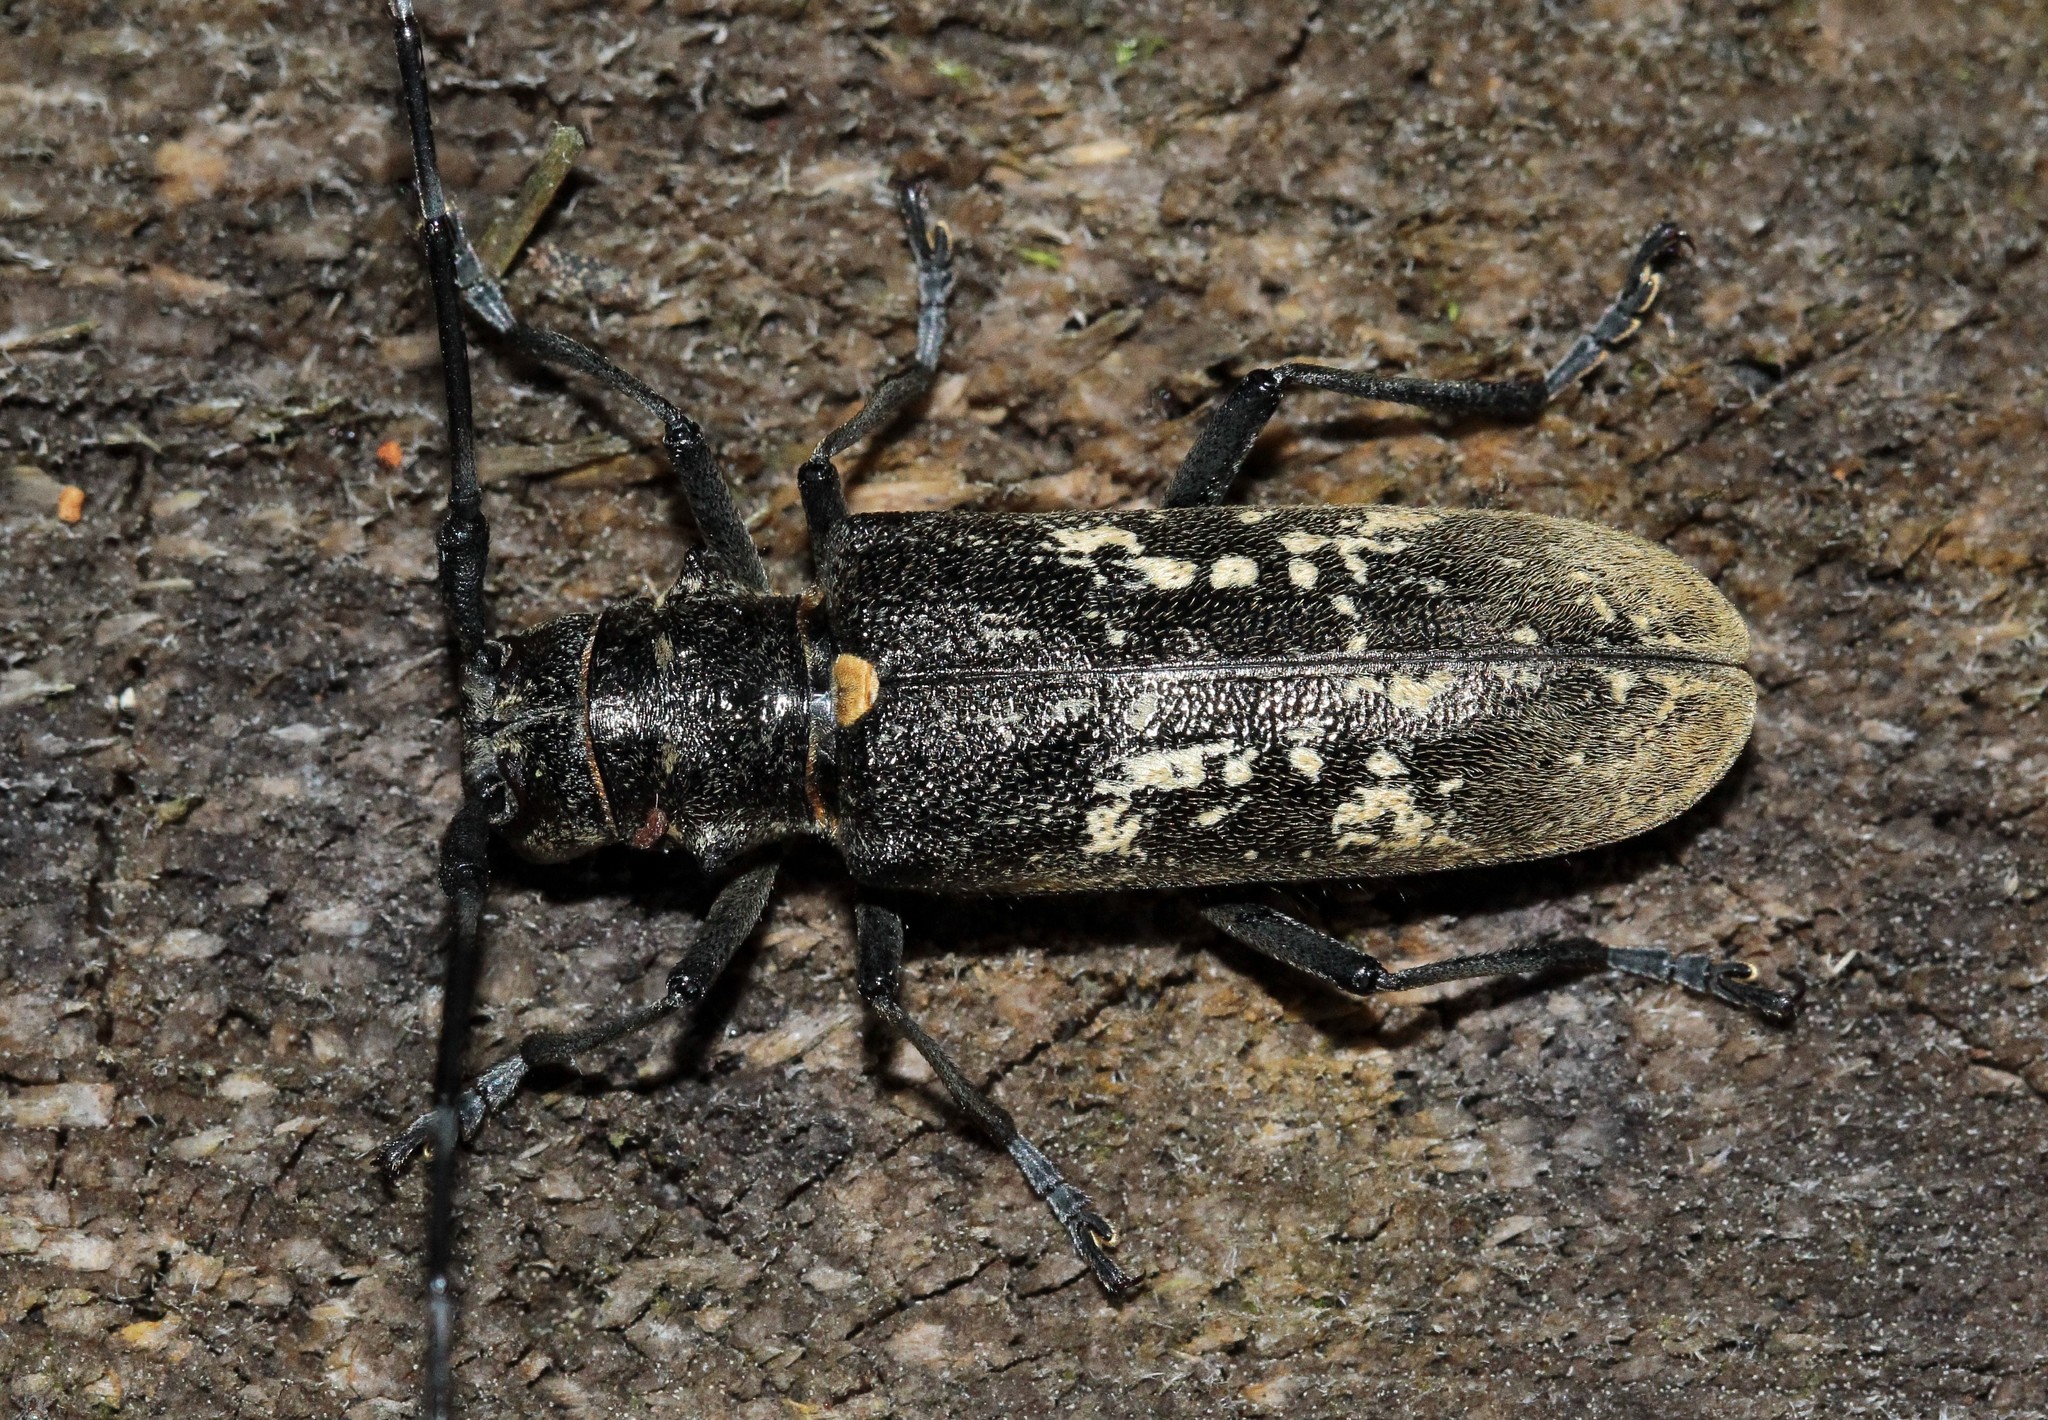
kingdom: Animalia
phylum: Arthropoda
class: Insecta
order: Coleoptera
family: Cerambycidae
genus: Monochamus
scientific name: Monochamus urussovii
